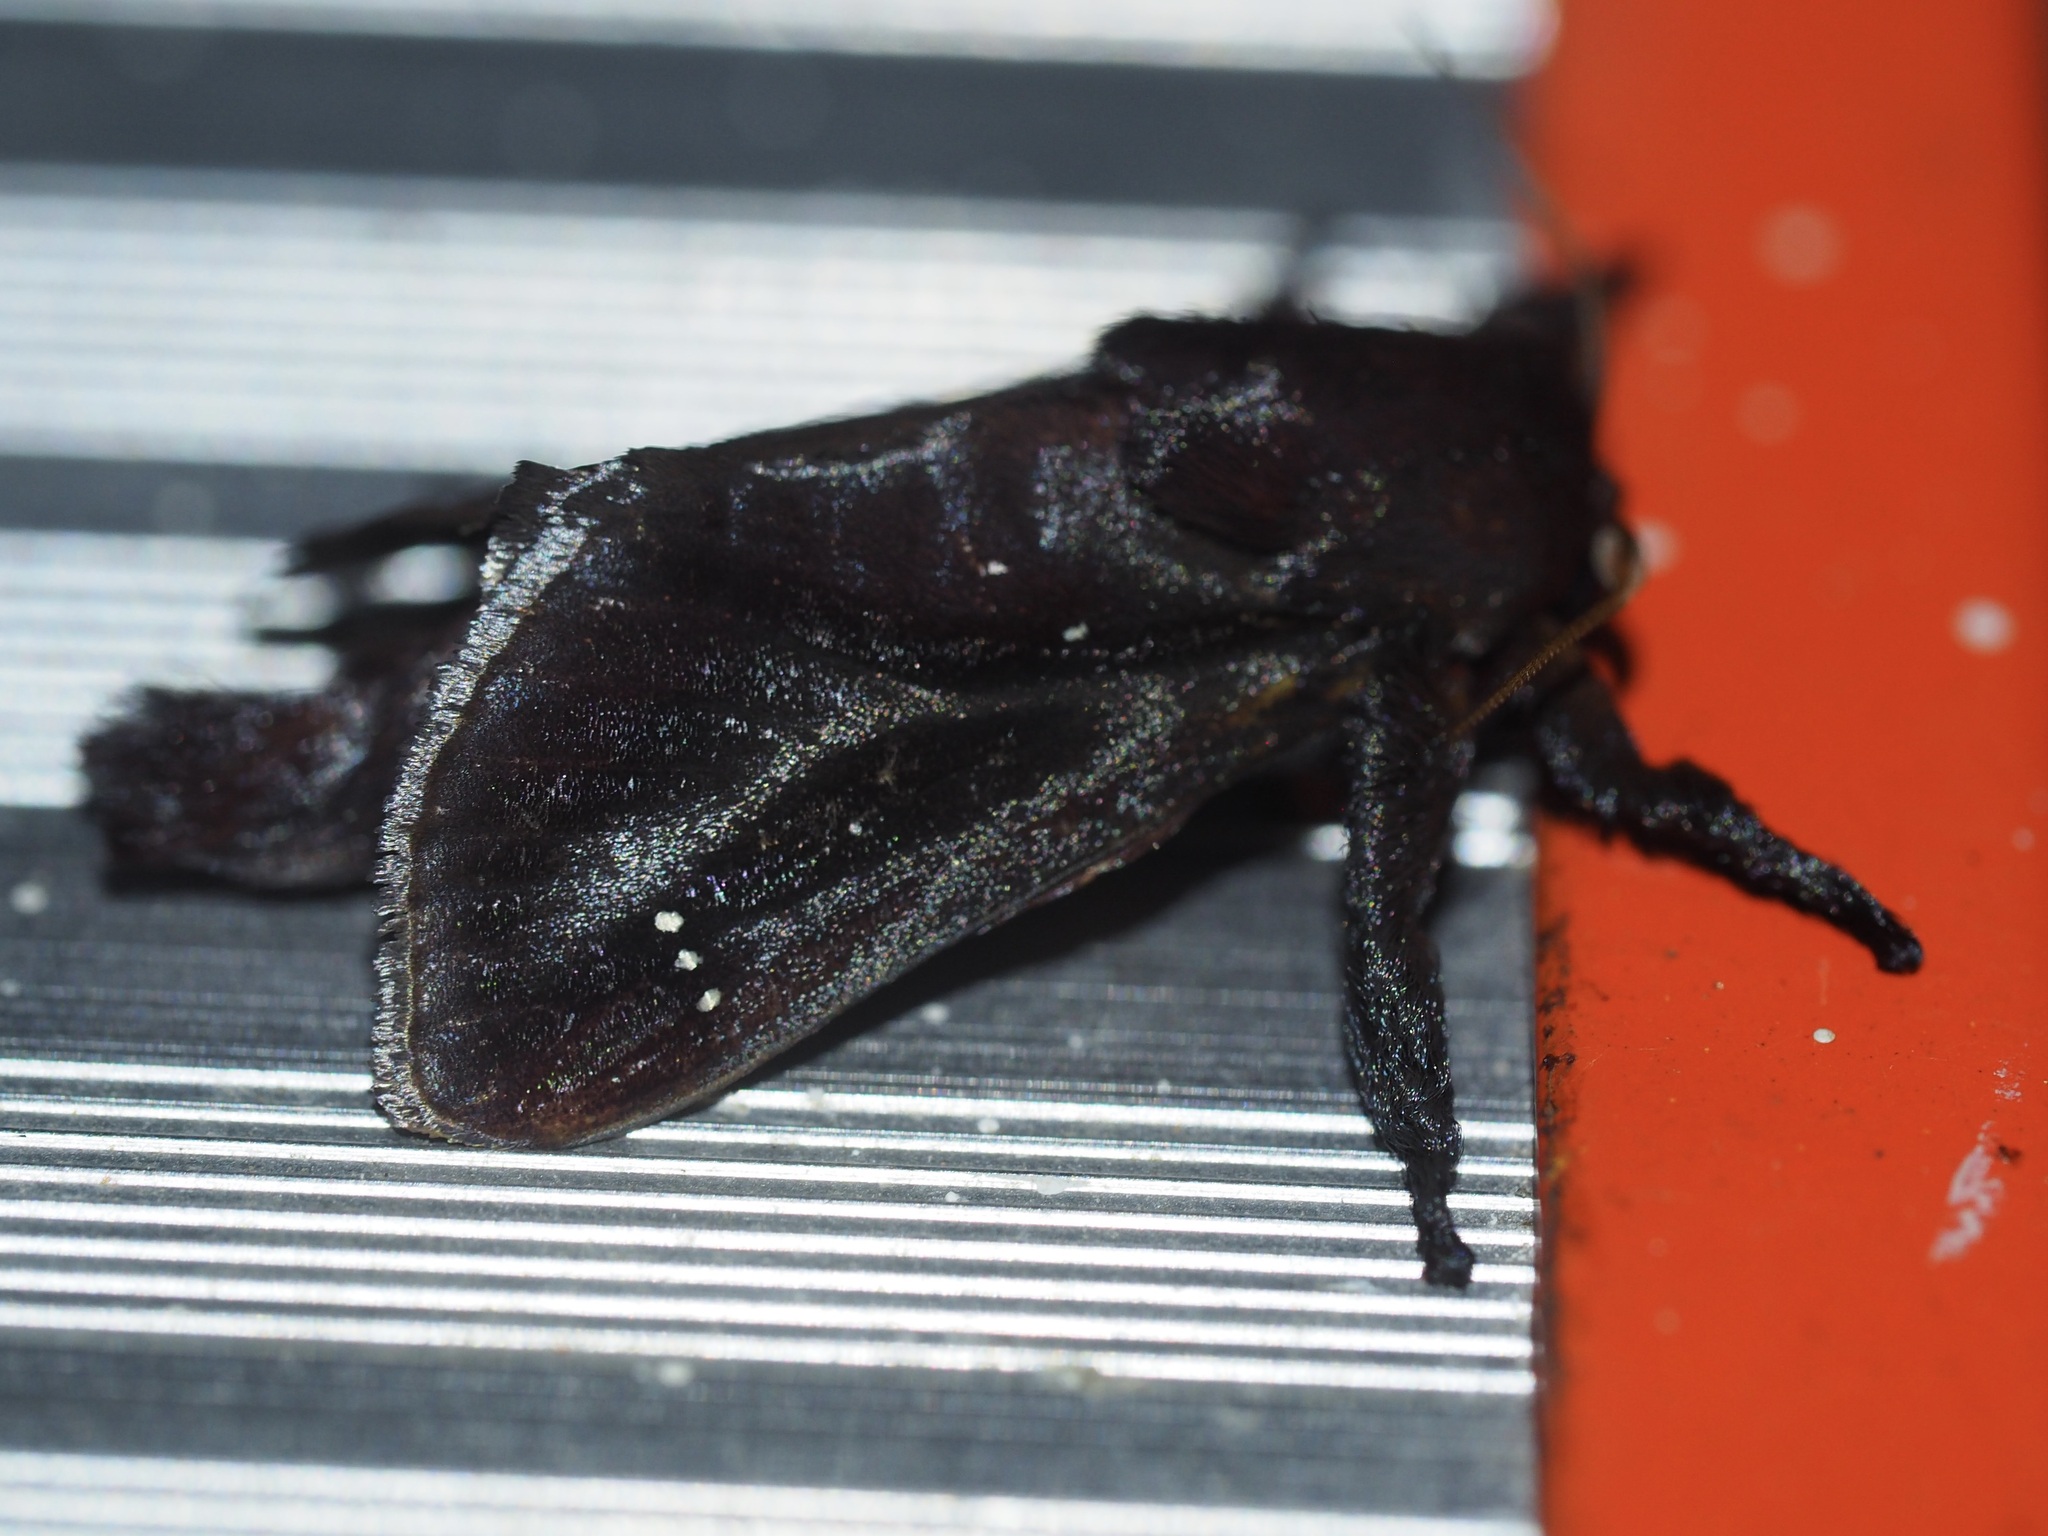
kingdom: Animalia
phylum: Arthropoda
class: Insecta
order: Lepidoptera
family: Limacodidae
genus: Sibine
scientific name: Sibine affinis
